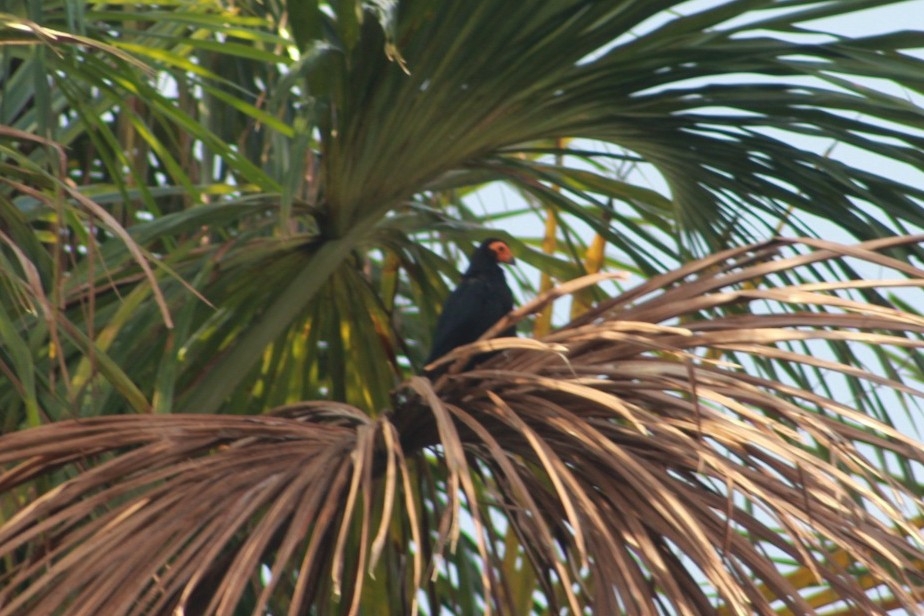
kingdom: Animalia
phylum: Chordata
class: Aves
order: Falconiformes
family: Falconidae
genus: Daptrius
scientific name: Daptrius ater
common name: Black caracara
